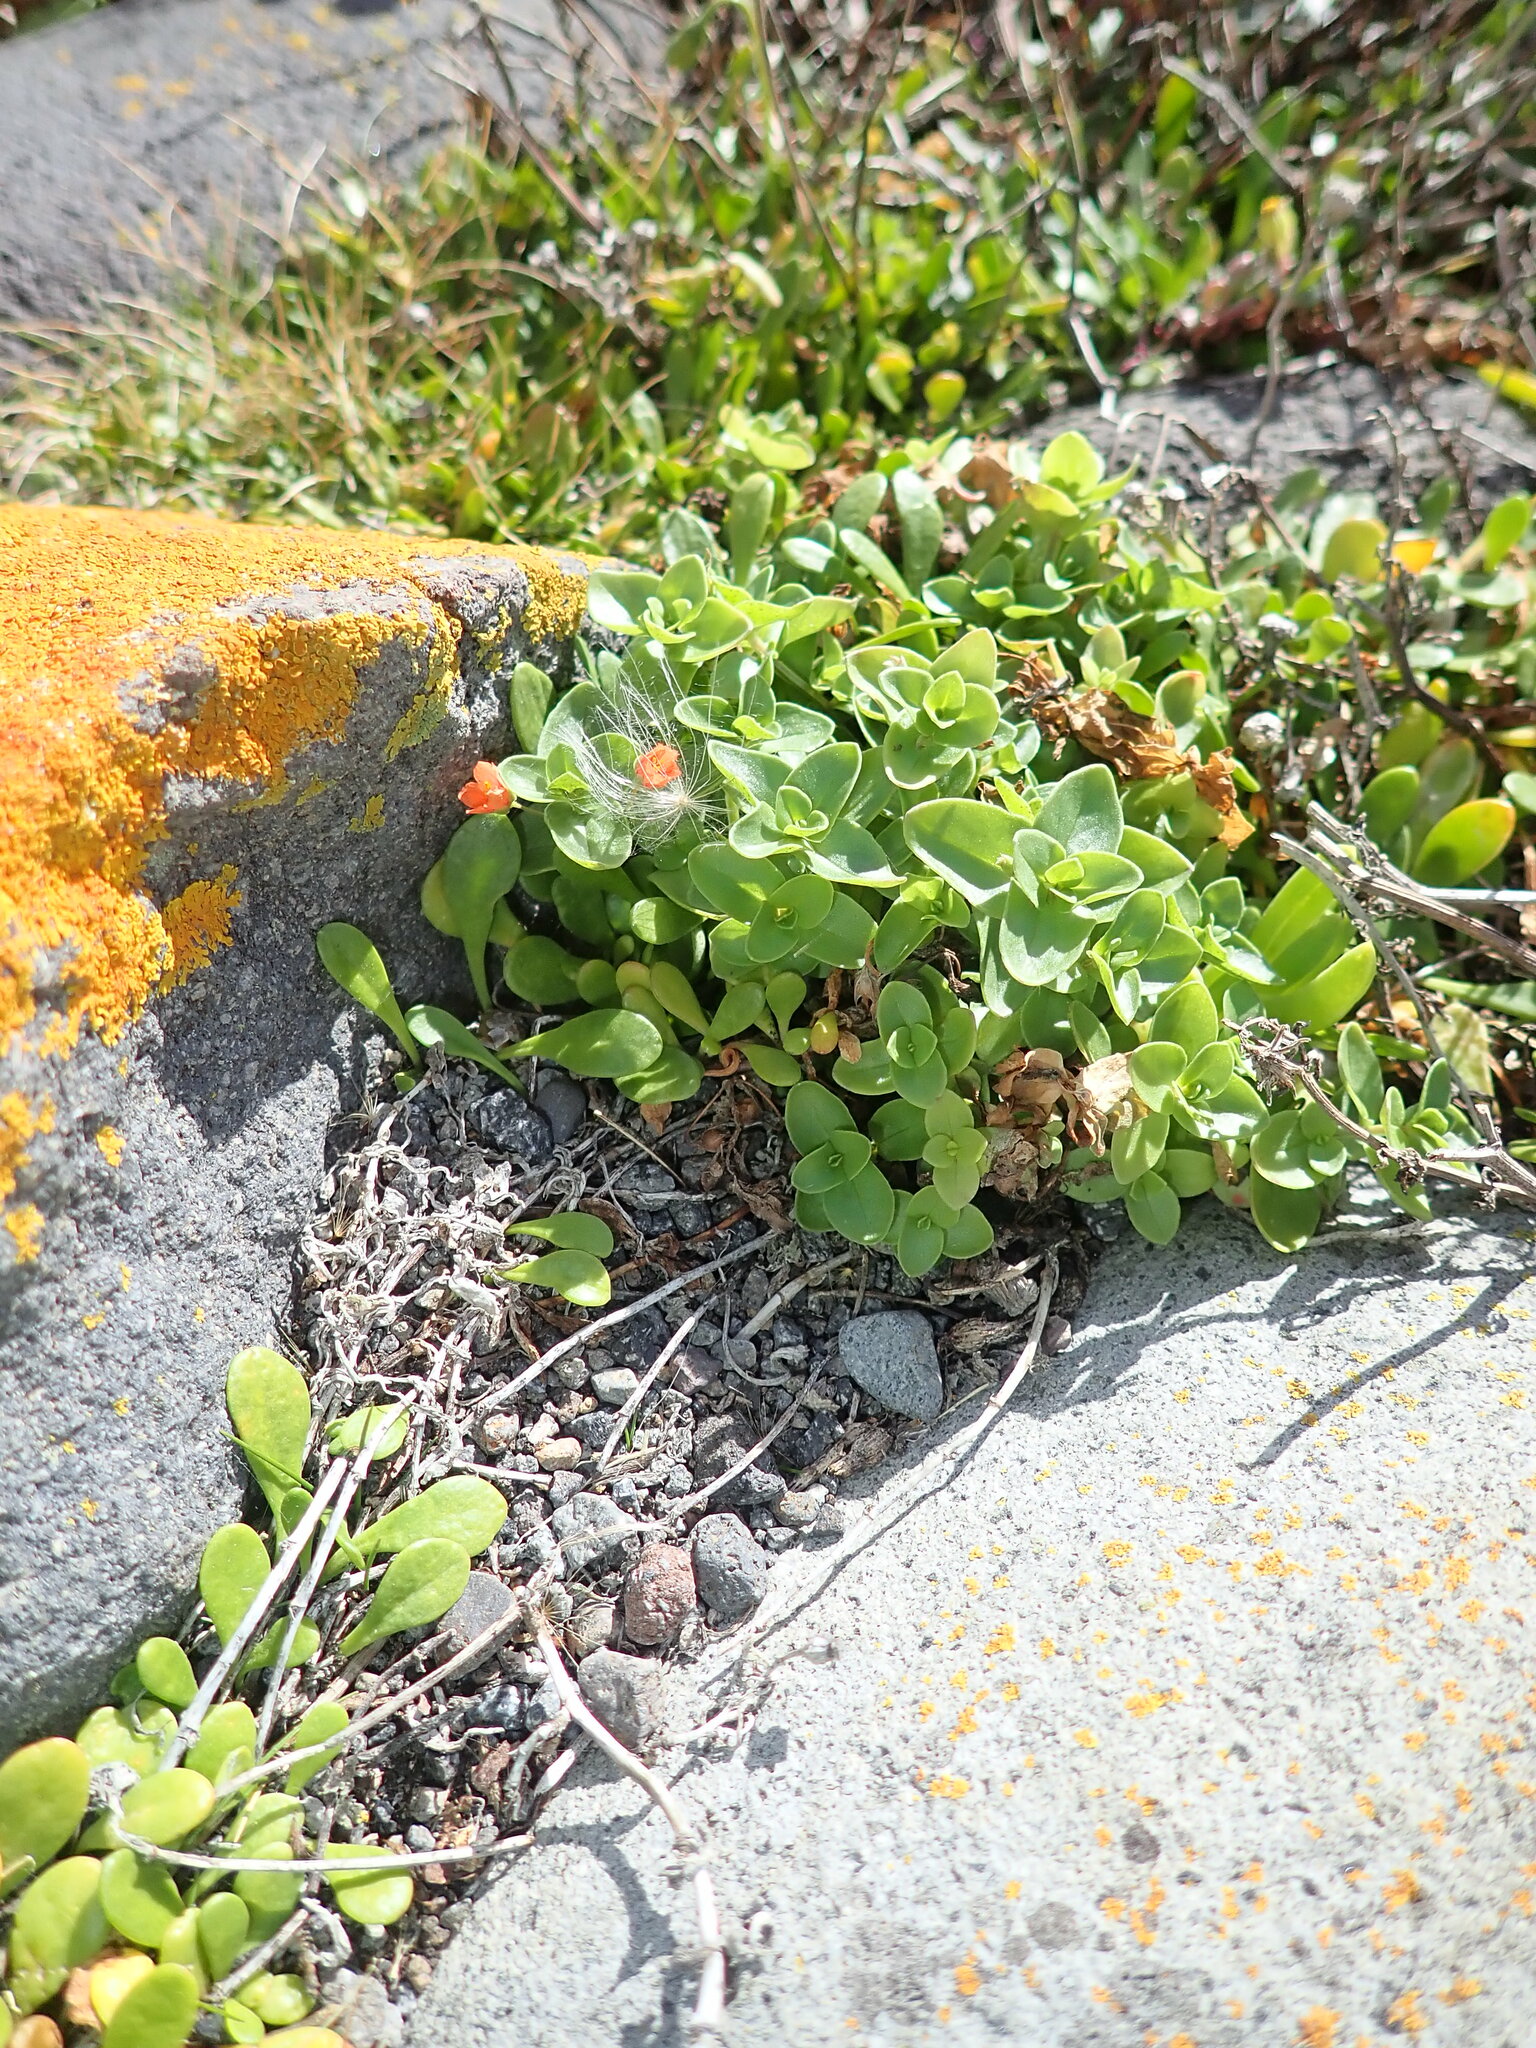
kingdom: Plantae
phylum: Tracheophyta
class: Magnoliopsida
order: Ericales
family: Primulaceae
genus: Lysimachia
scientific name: Lysimachia arvensis
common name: Scarlet pimpernel
